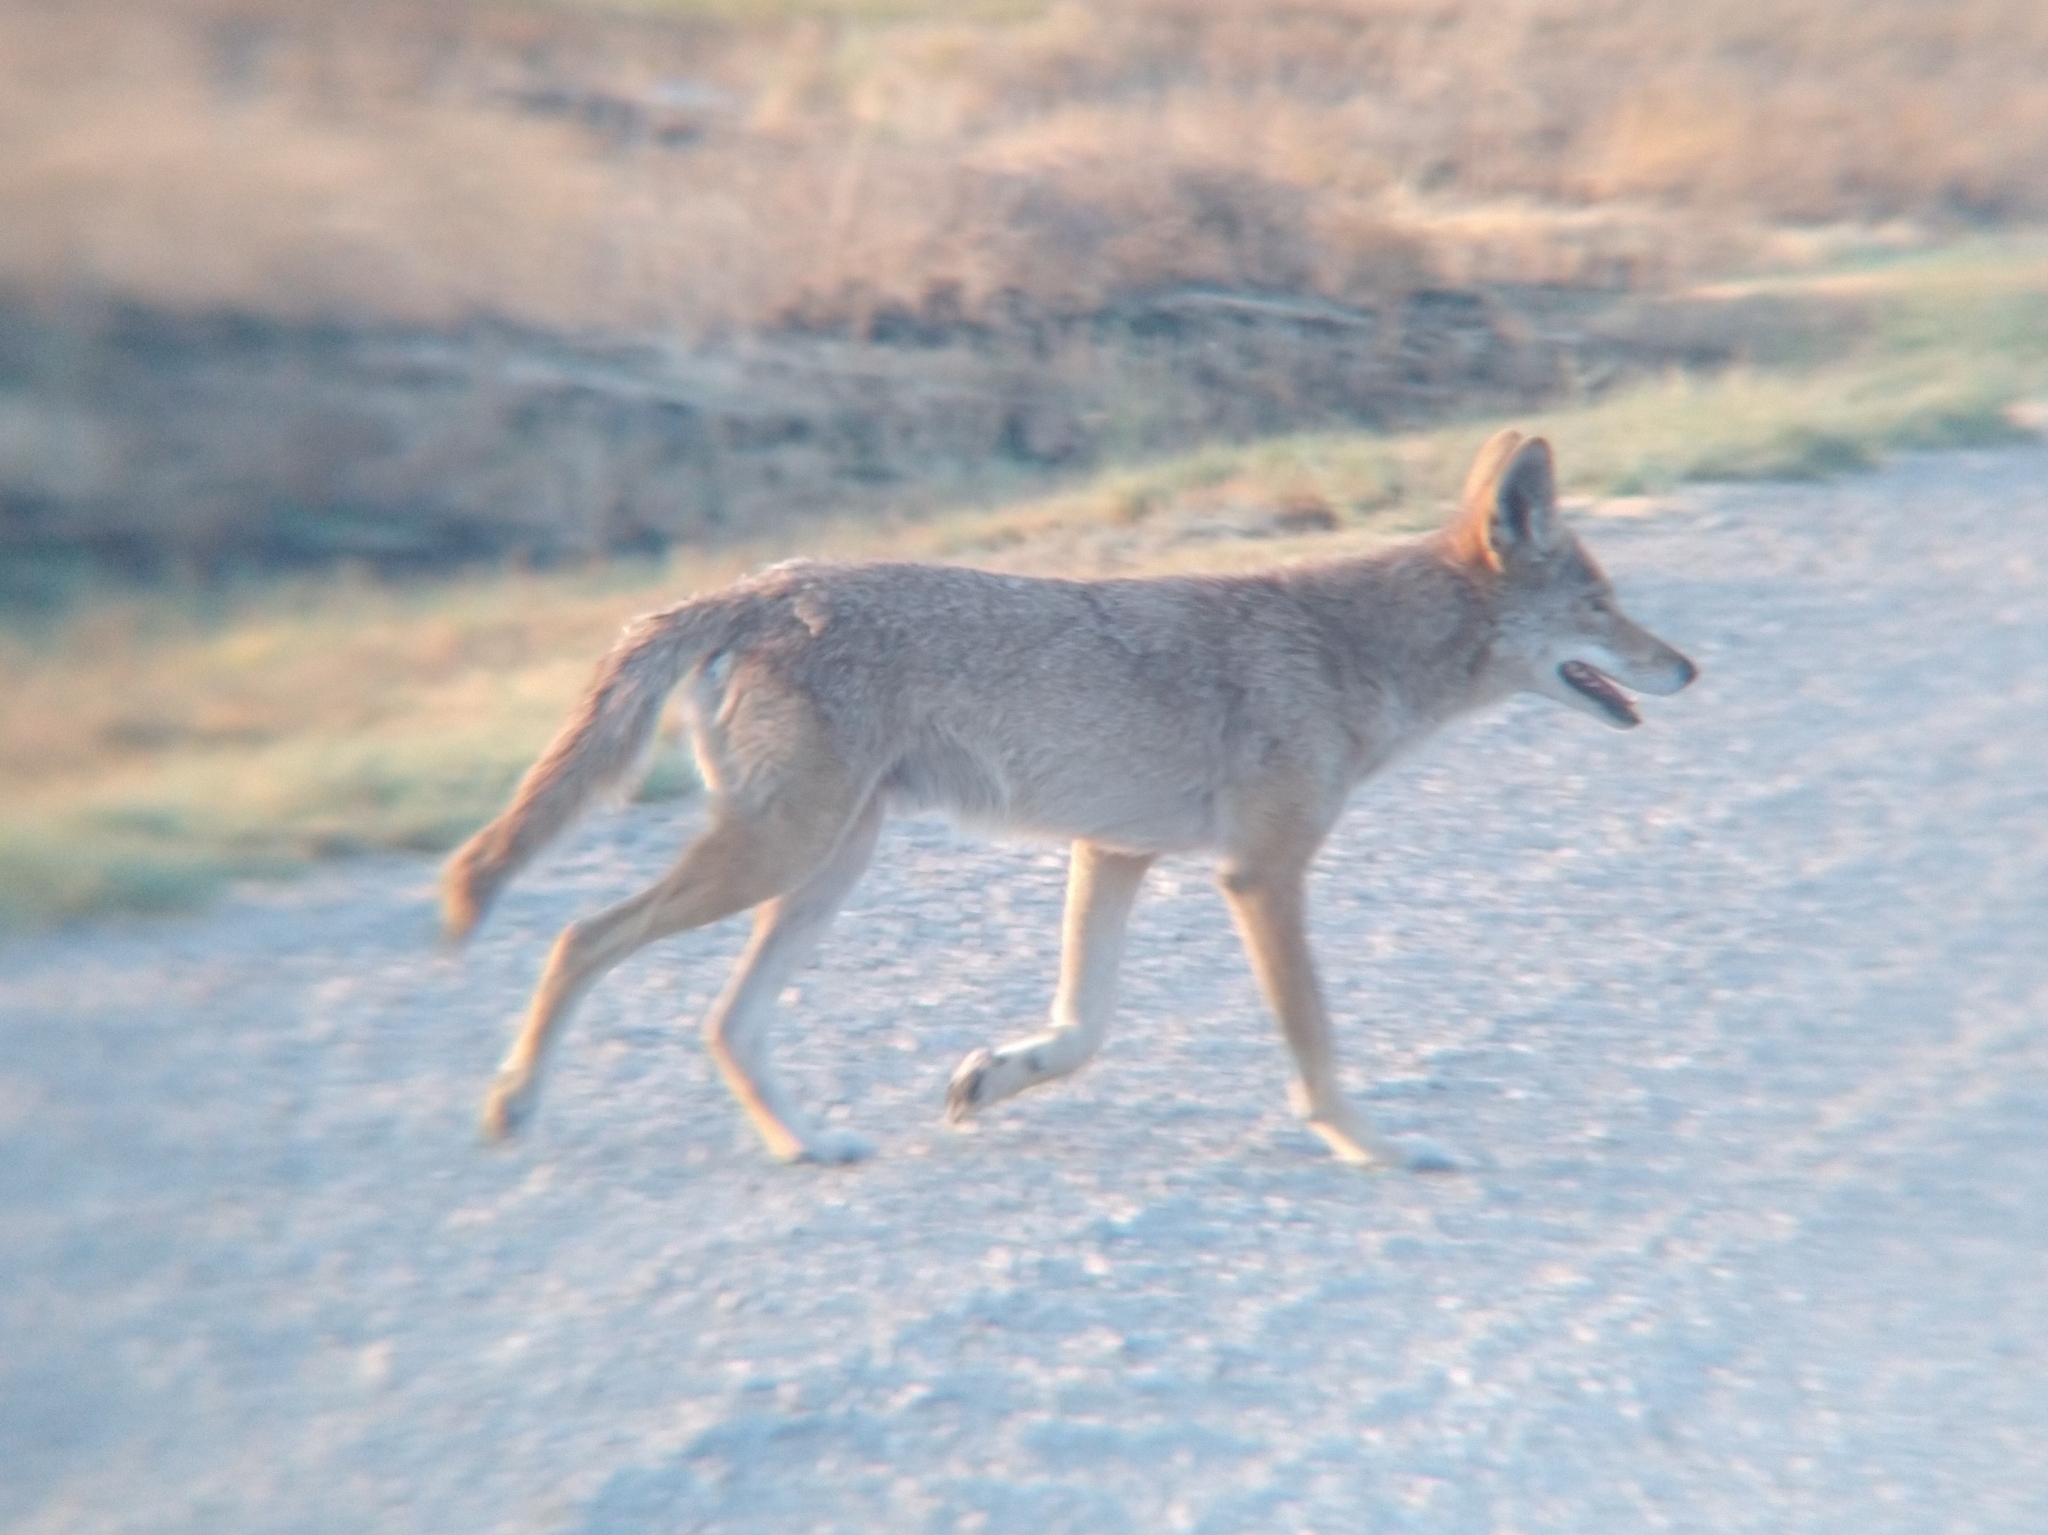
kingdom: Animalia
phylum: Chordata
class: Mammalia
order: Carnivora
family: Canidae
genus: Canis
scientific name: Canis latrans
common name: Coyote
